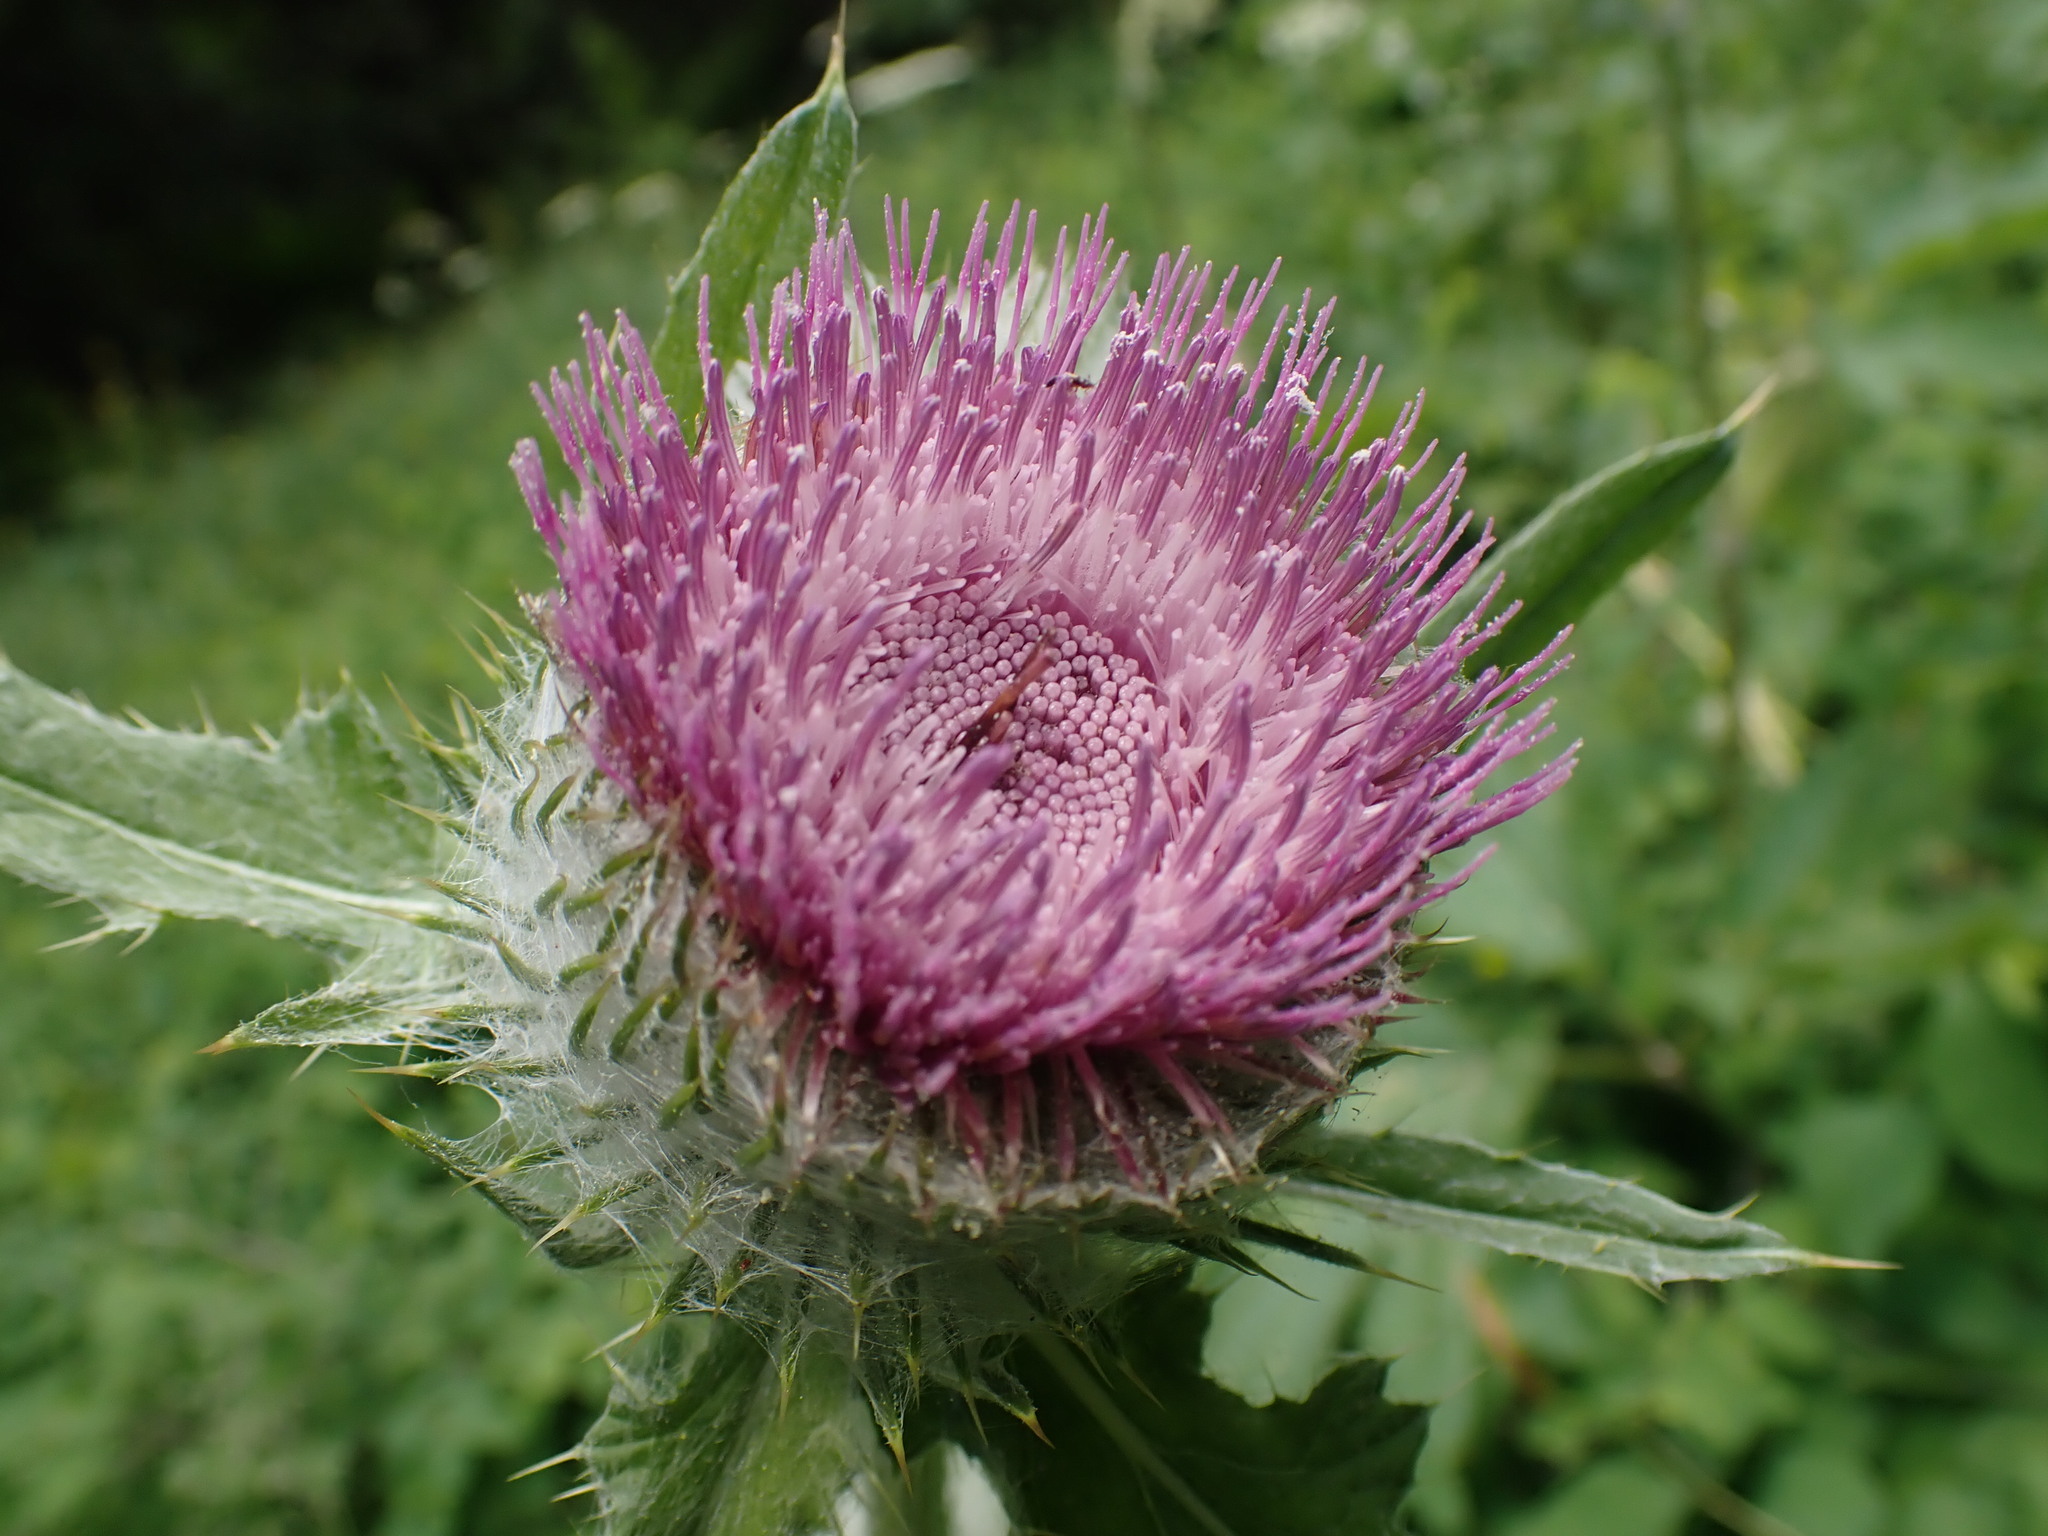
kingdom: Plantae
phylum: Tracheophyta
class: Magnoliopsida
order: Asterales
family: Asteraceae
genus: Cirsium
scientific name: Cirsium edule
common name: Indian thistle
